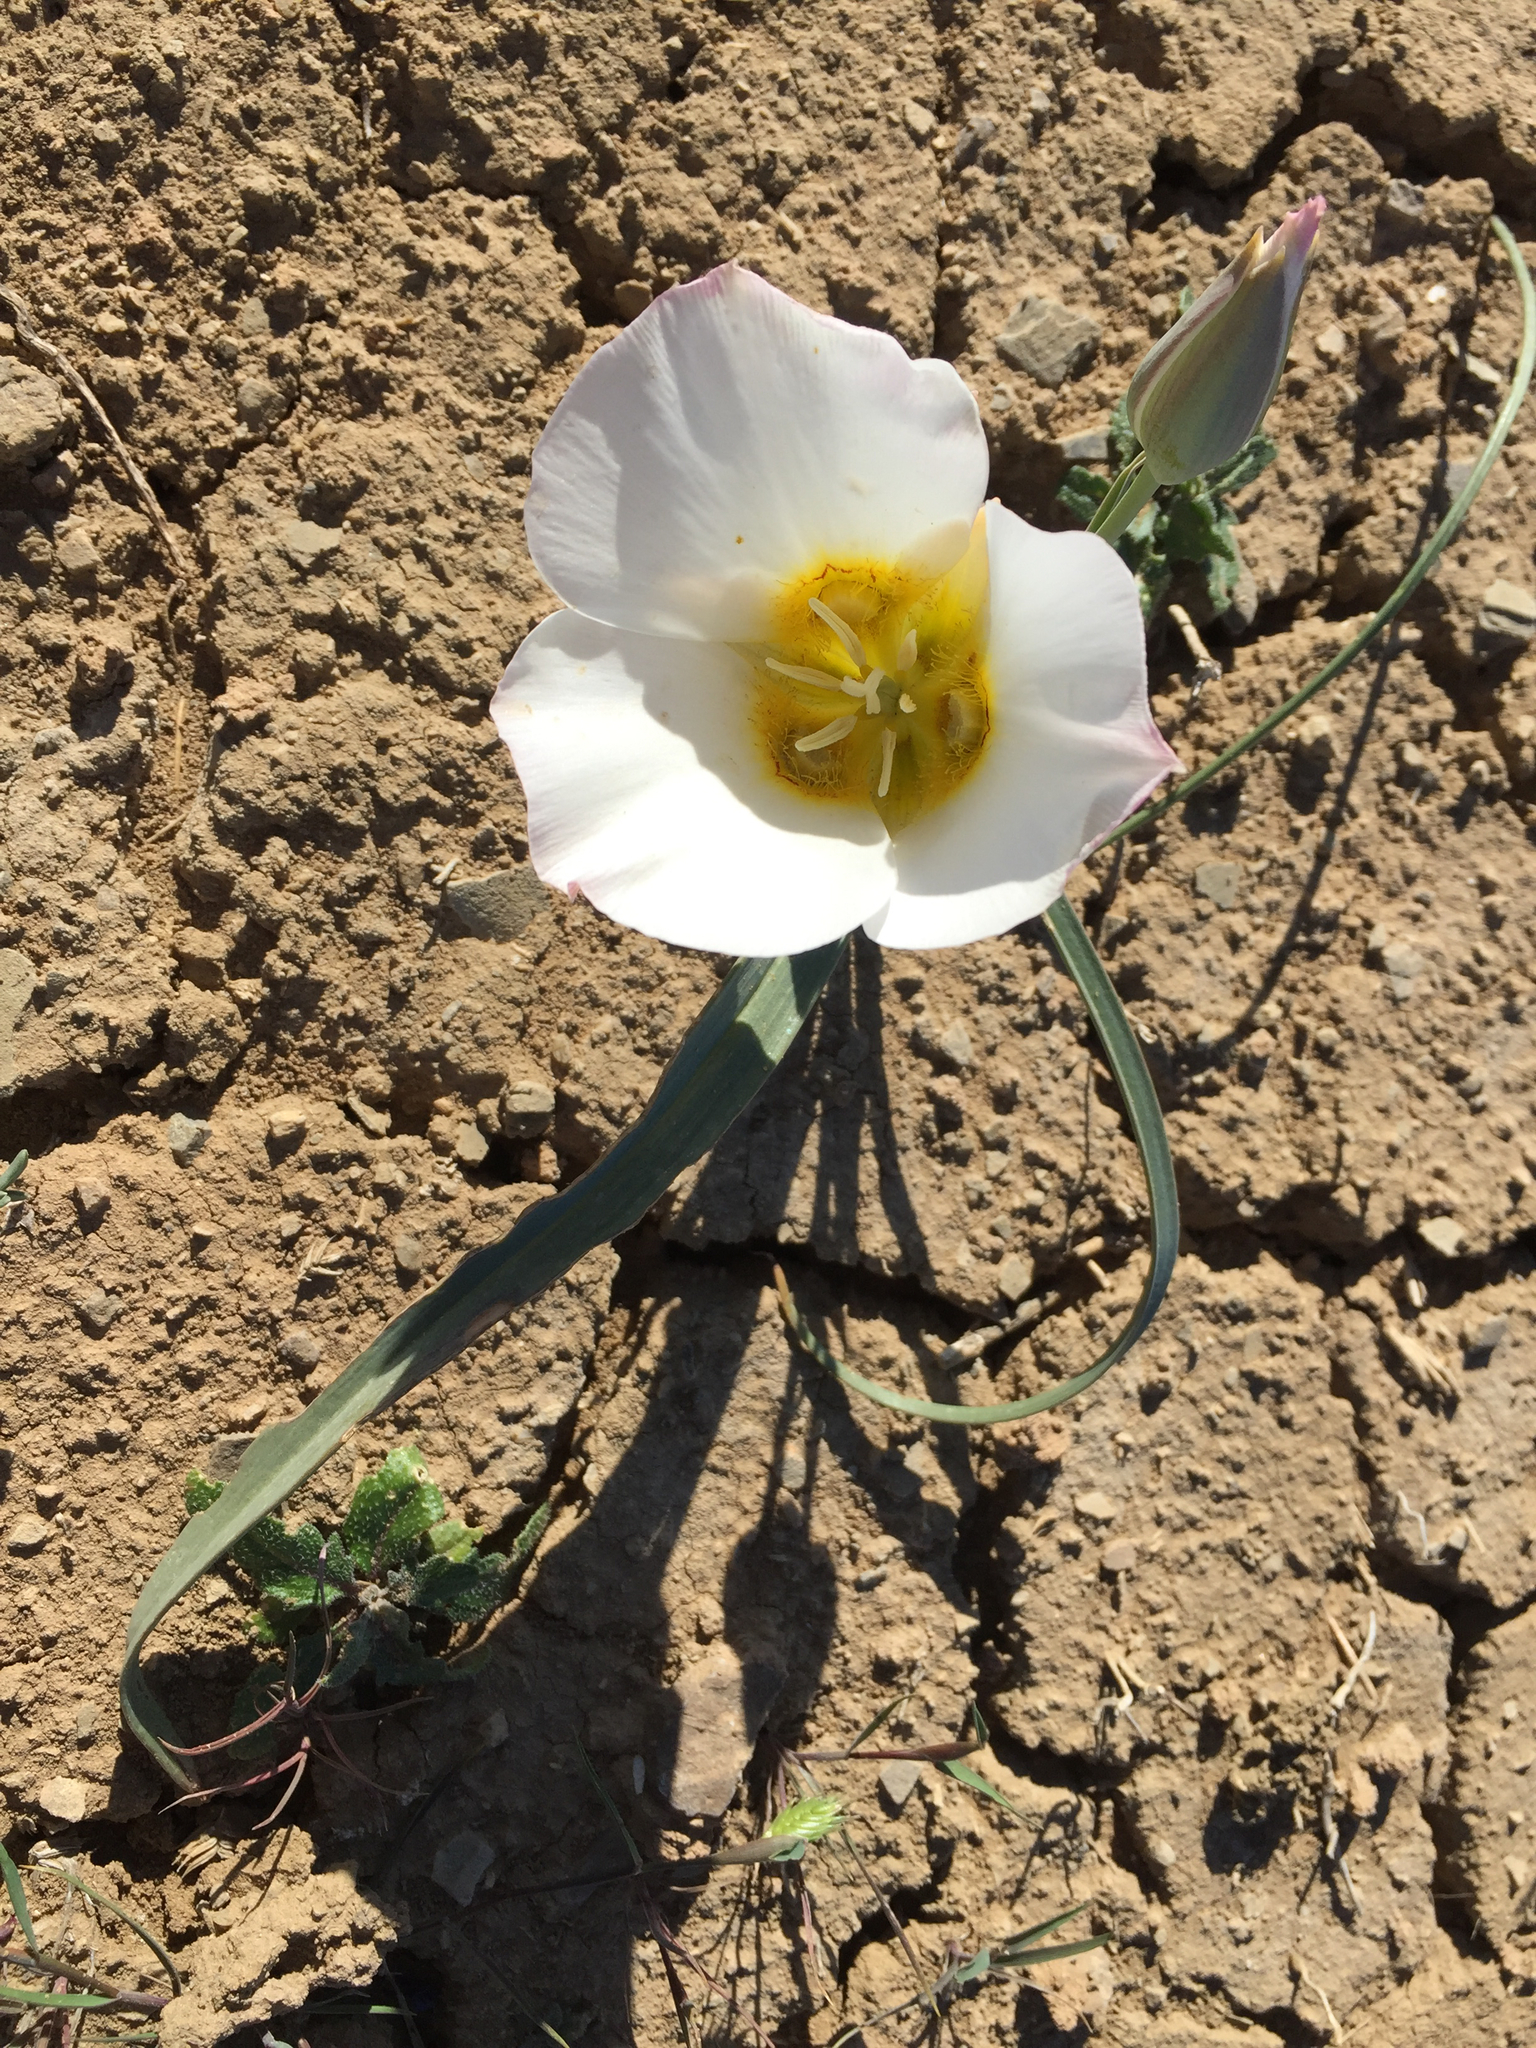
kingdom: Plantae
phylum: Tracheophyta
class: Liliopsida
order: Liliales
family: Liliaceae
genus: Calochortus
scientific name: Calochortus ciscoensis
